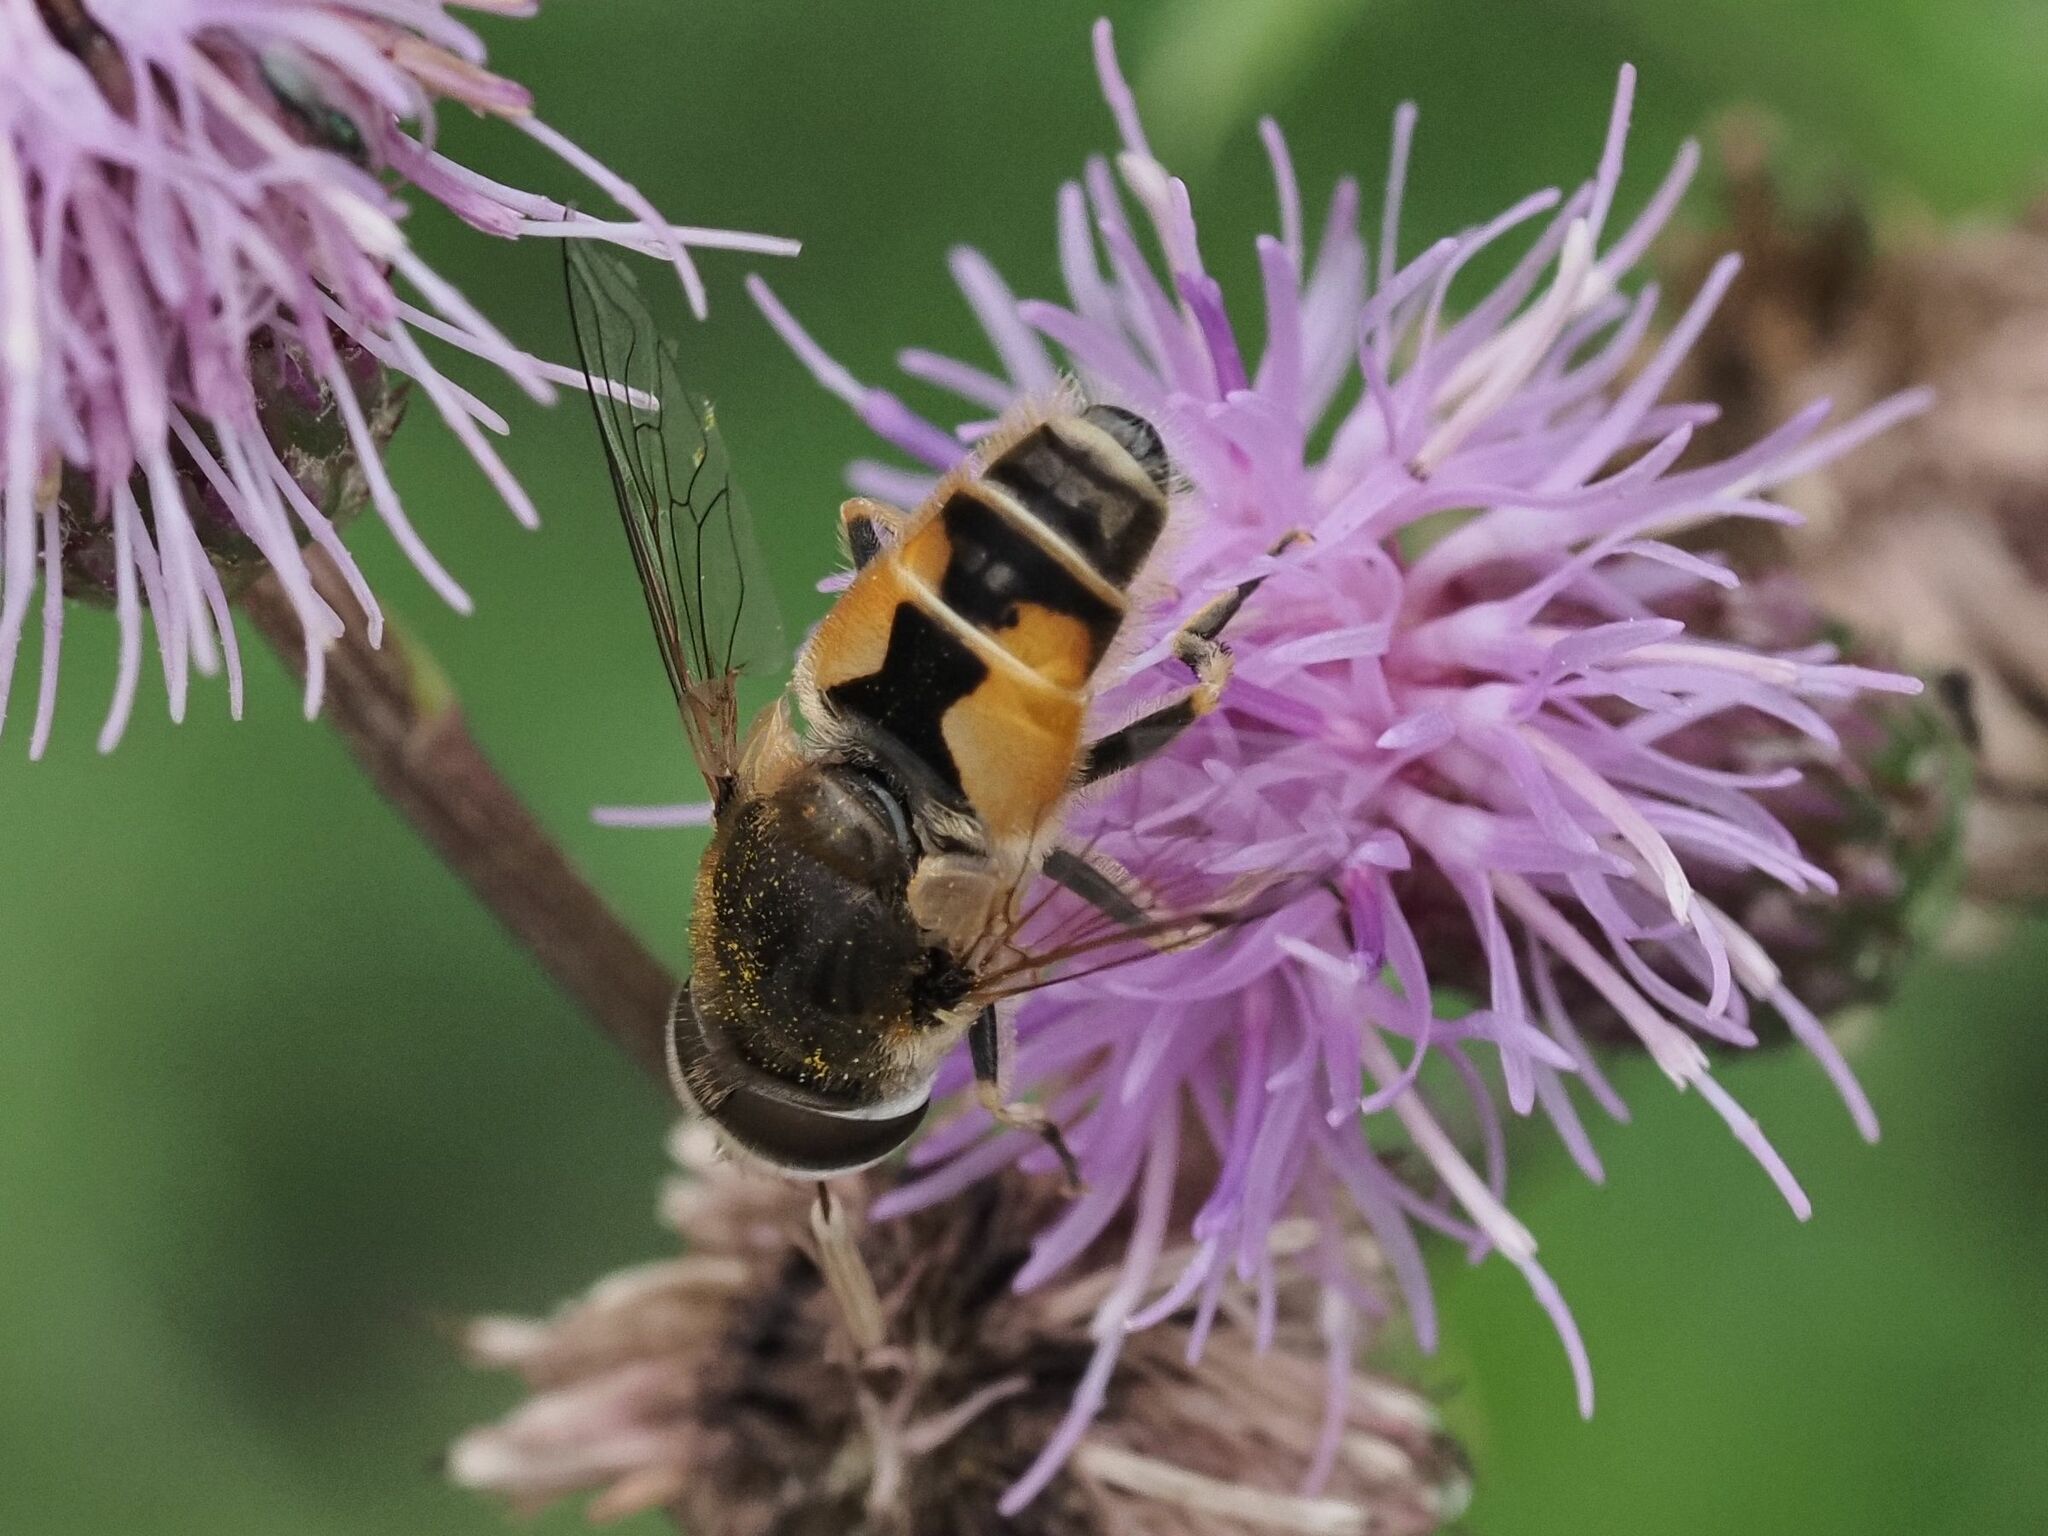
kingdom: Animalia
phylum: Arthropoda
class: Insecta
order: Diptera
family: Syrphidae
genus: Eristalis
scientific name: Eristalis arbustorum
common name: Hover fly
